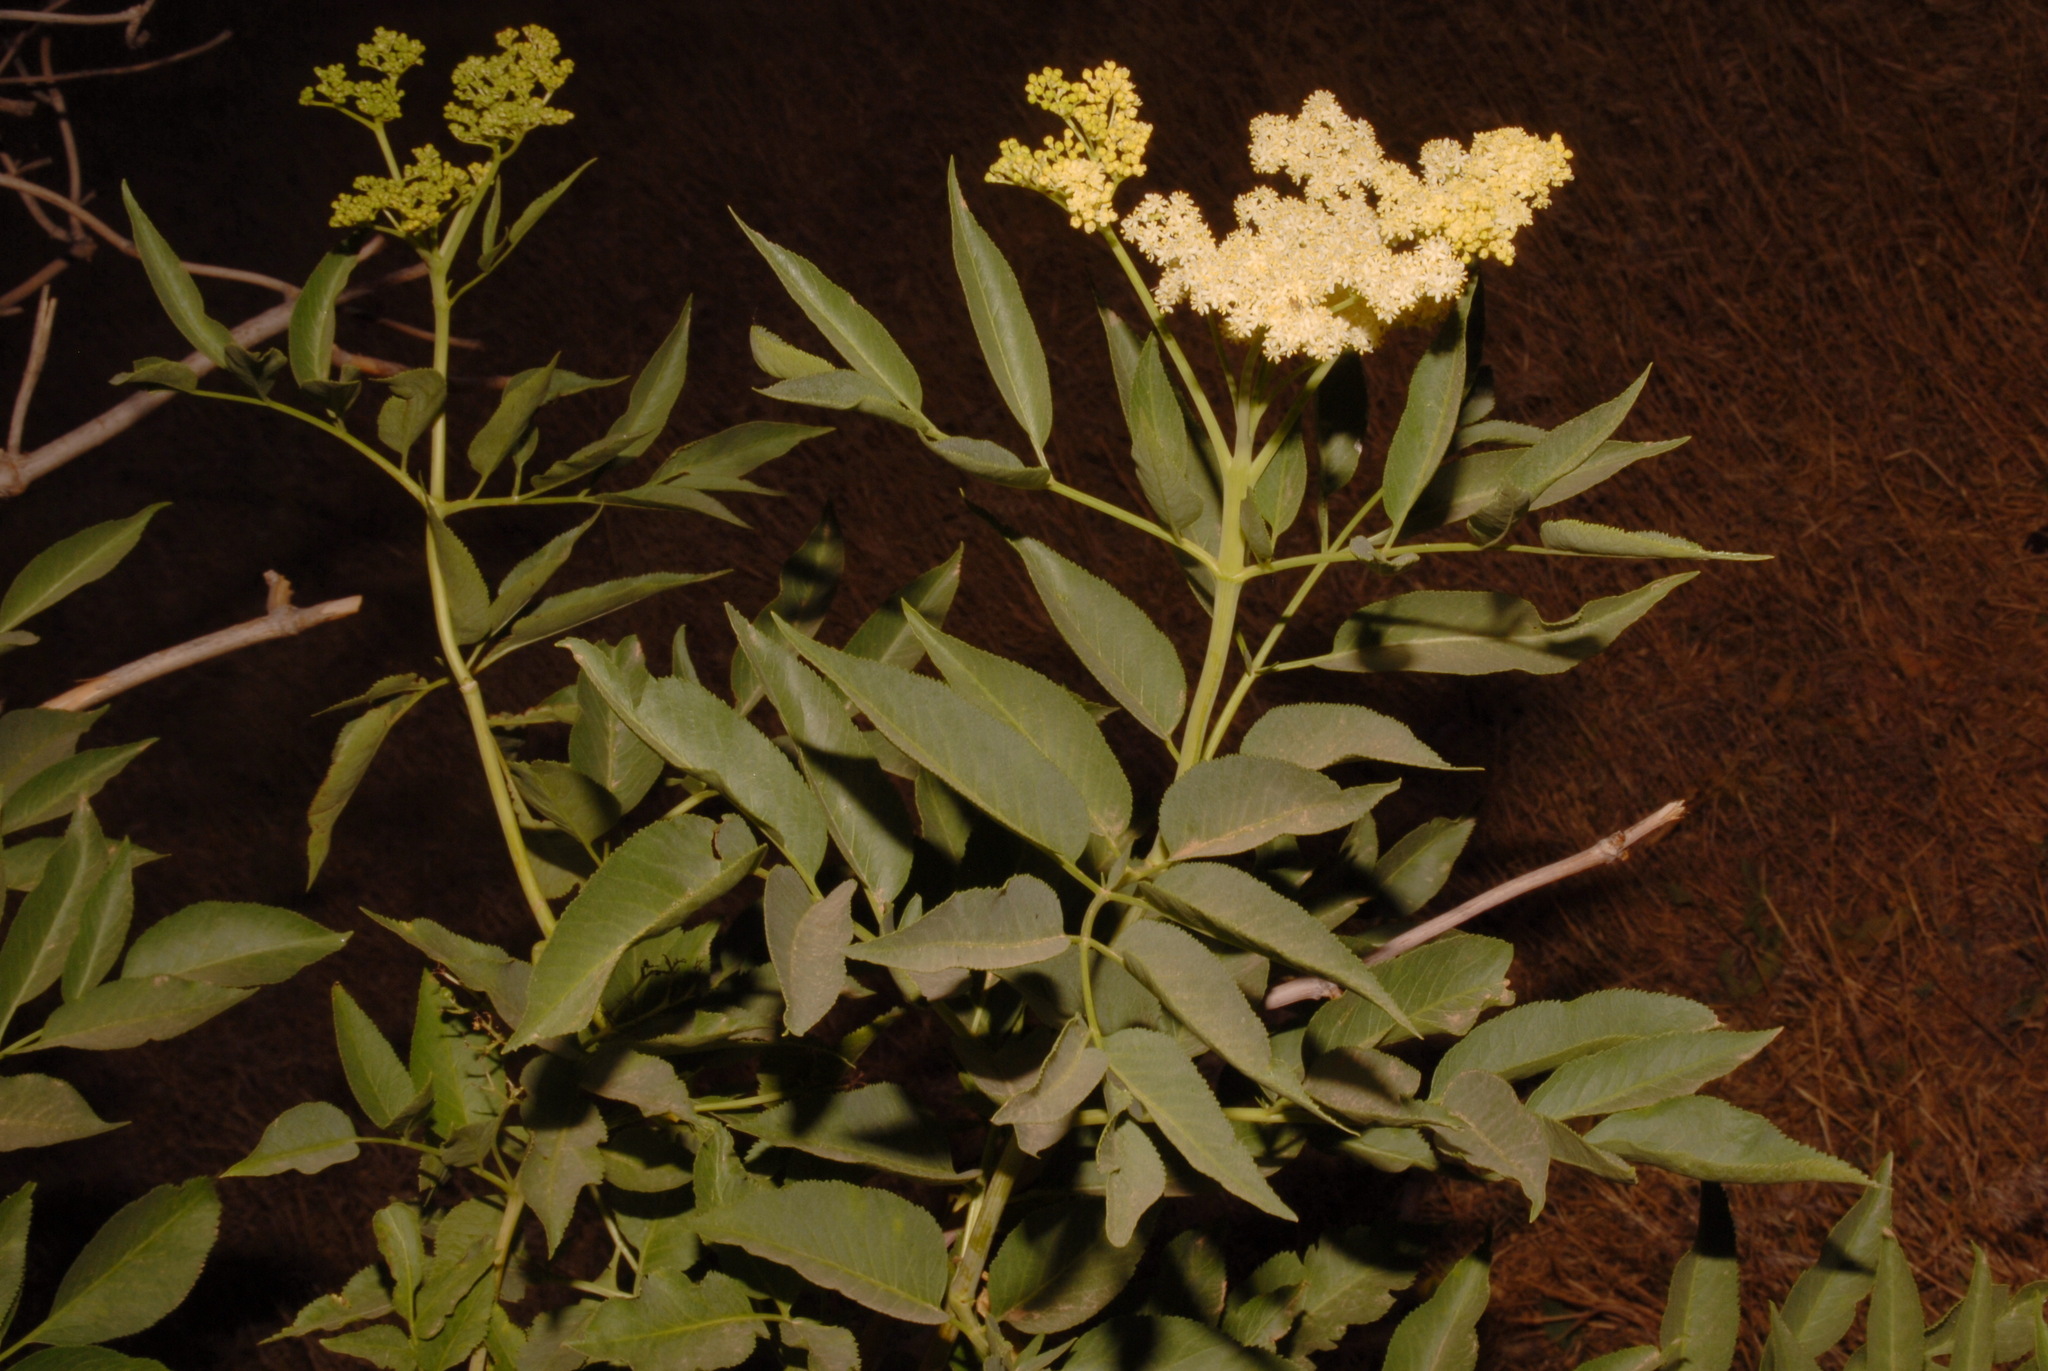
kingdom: Plantae
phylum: Tracheophyta
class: Magnoliopsida
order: Dipsacales
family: Viburnaceae
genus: Sambucus
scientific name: Sambucus cerulea
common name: Blue elder
